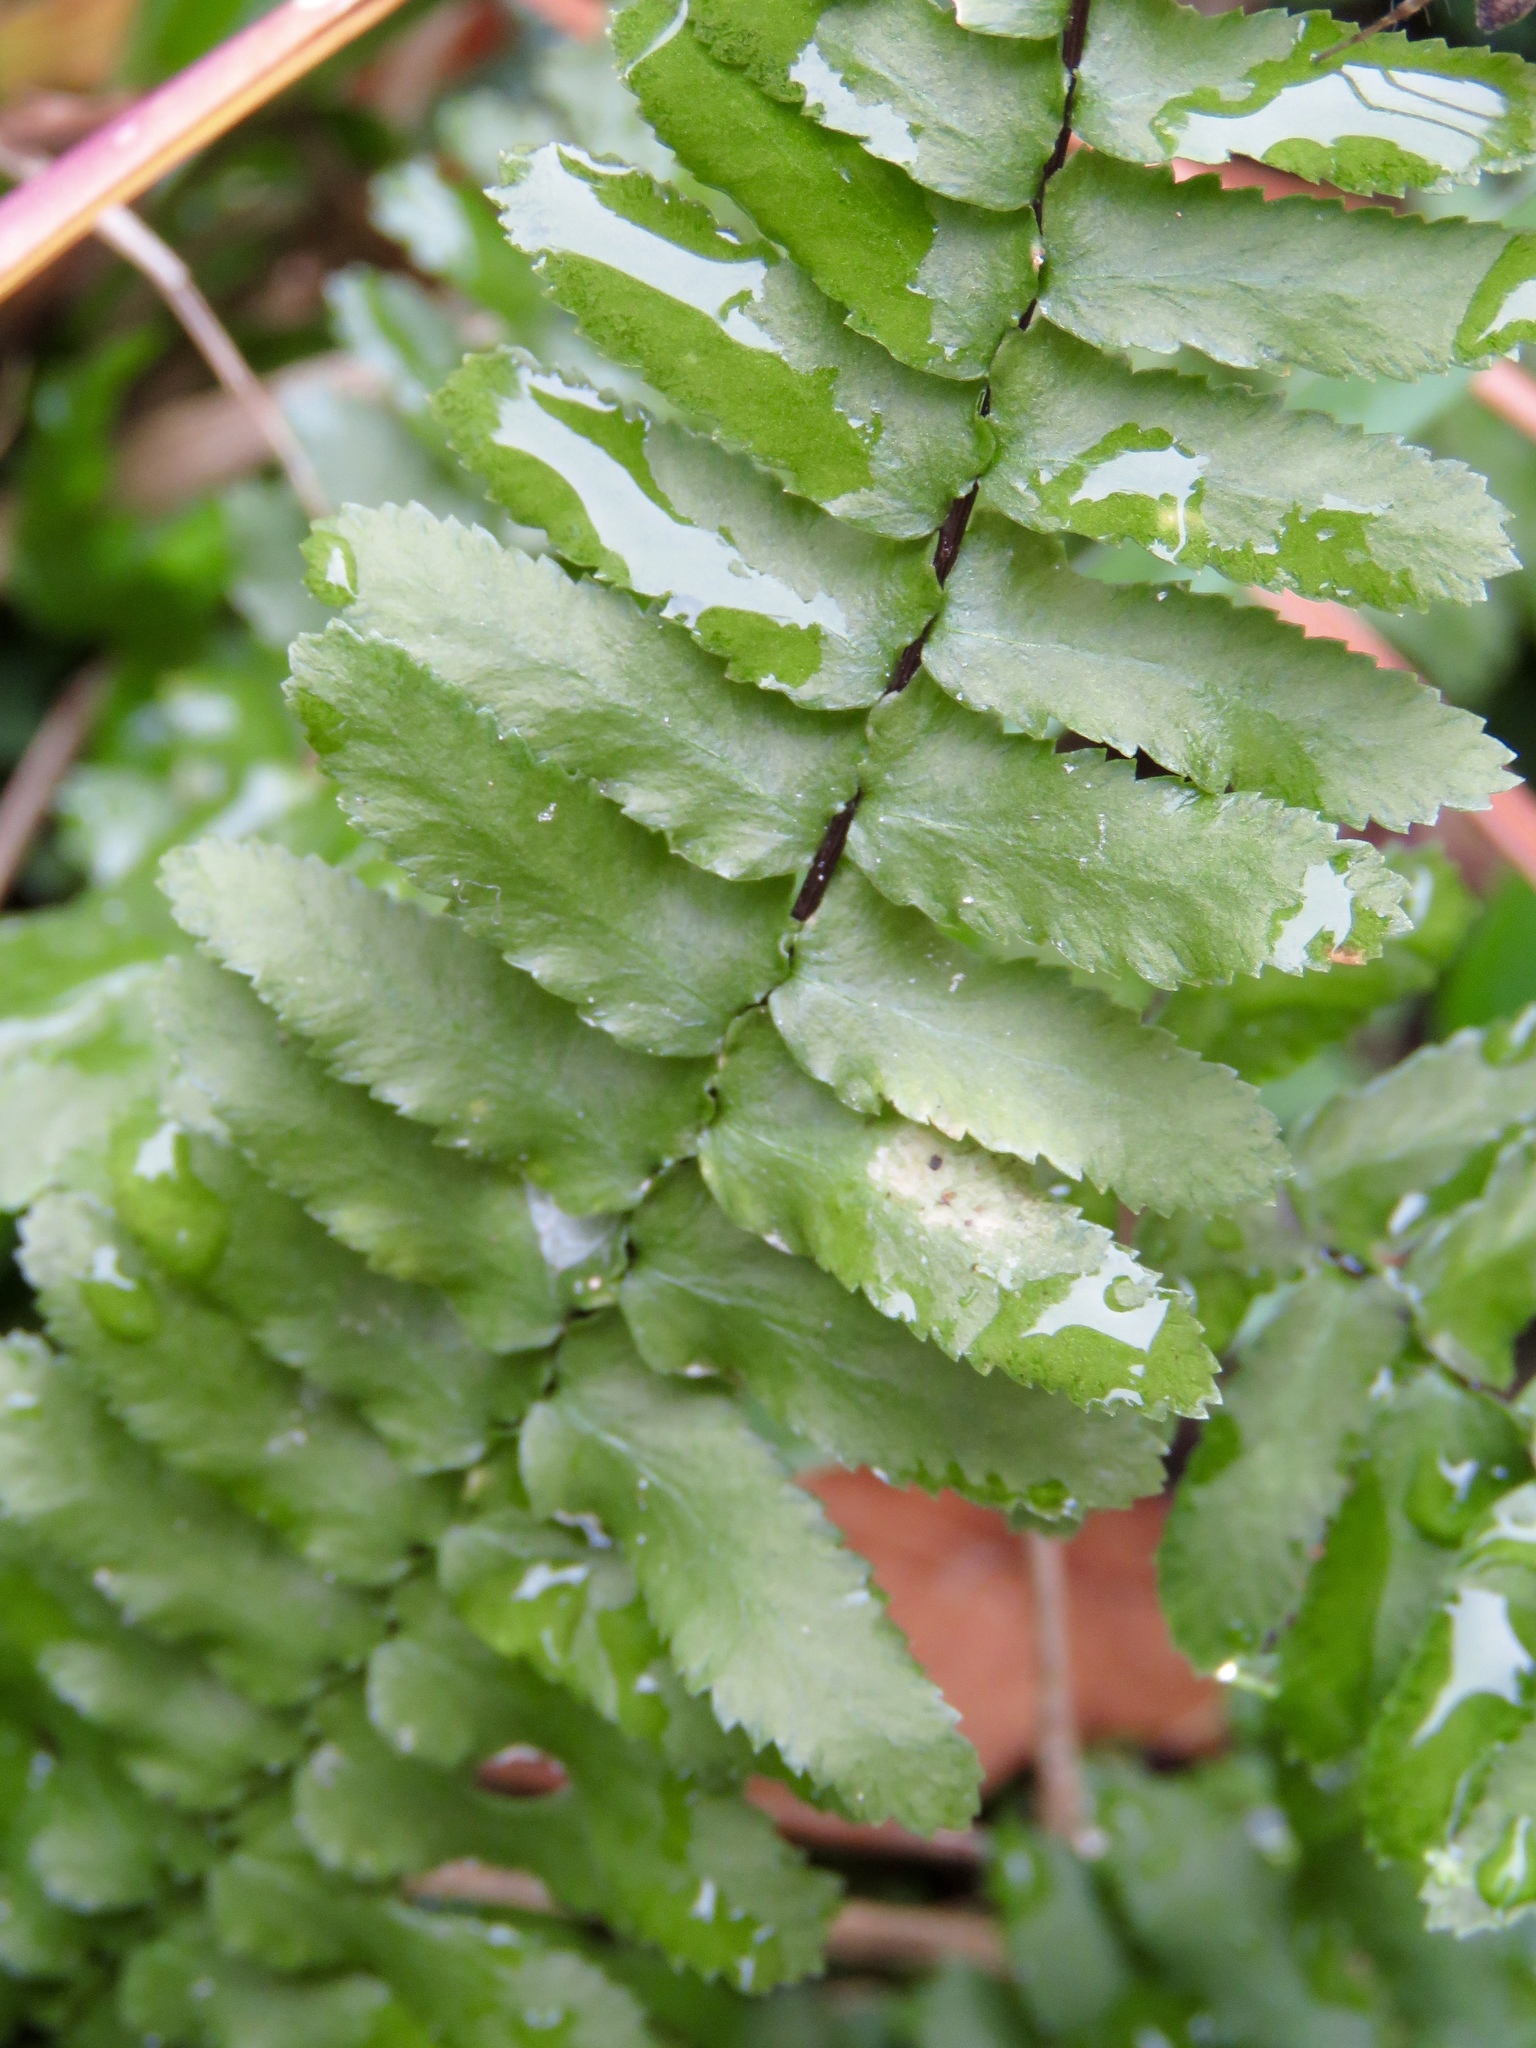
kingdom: Plantae
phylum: Tracheophyta
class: Polypodiopsida
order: Polypodiales
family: Aspleniaceae
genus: Asplenium
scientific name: Asplenium platyneuron
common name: Ebony spleenwort
